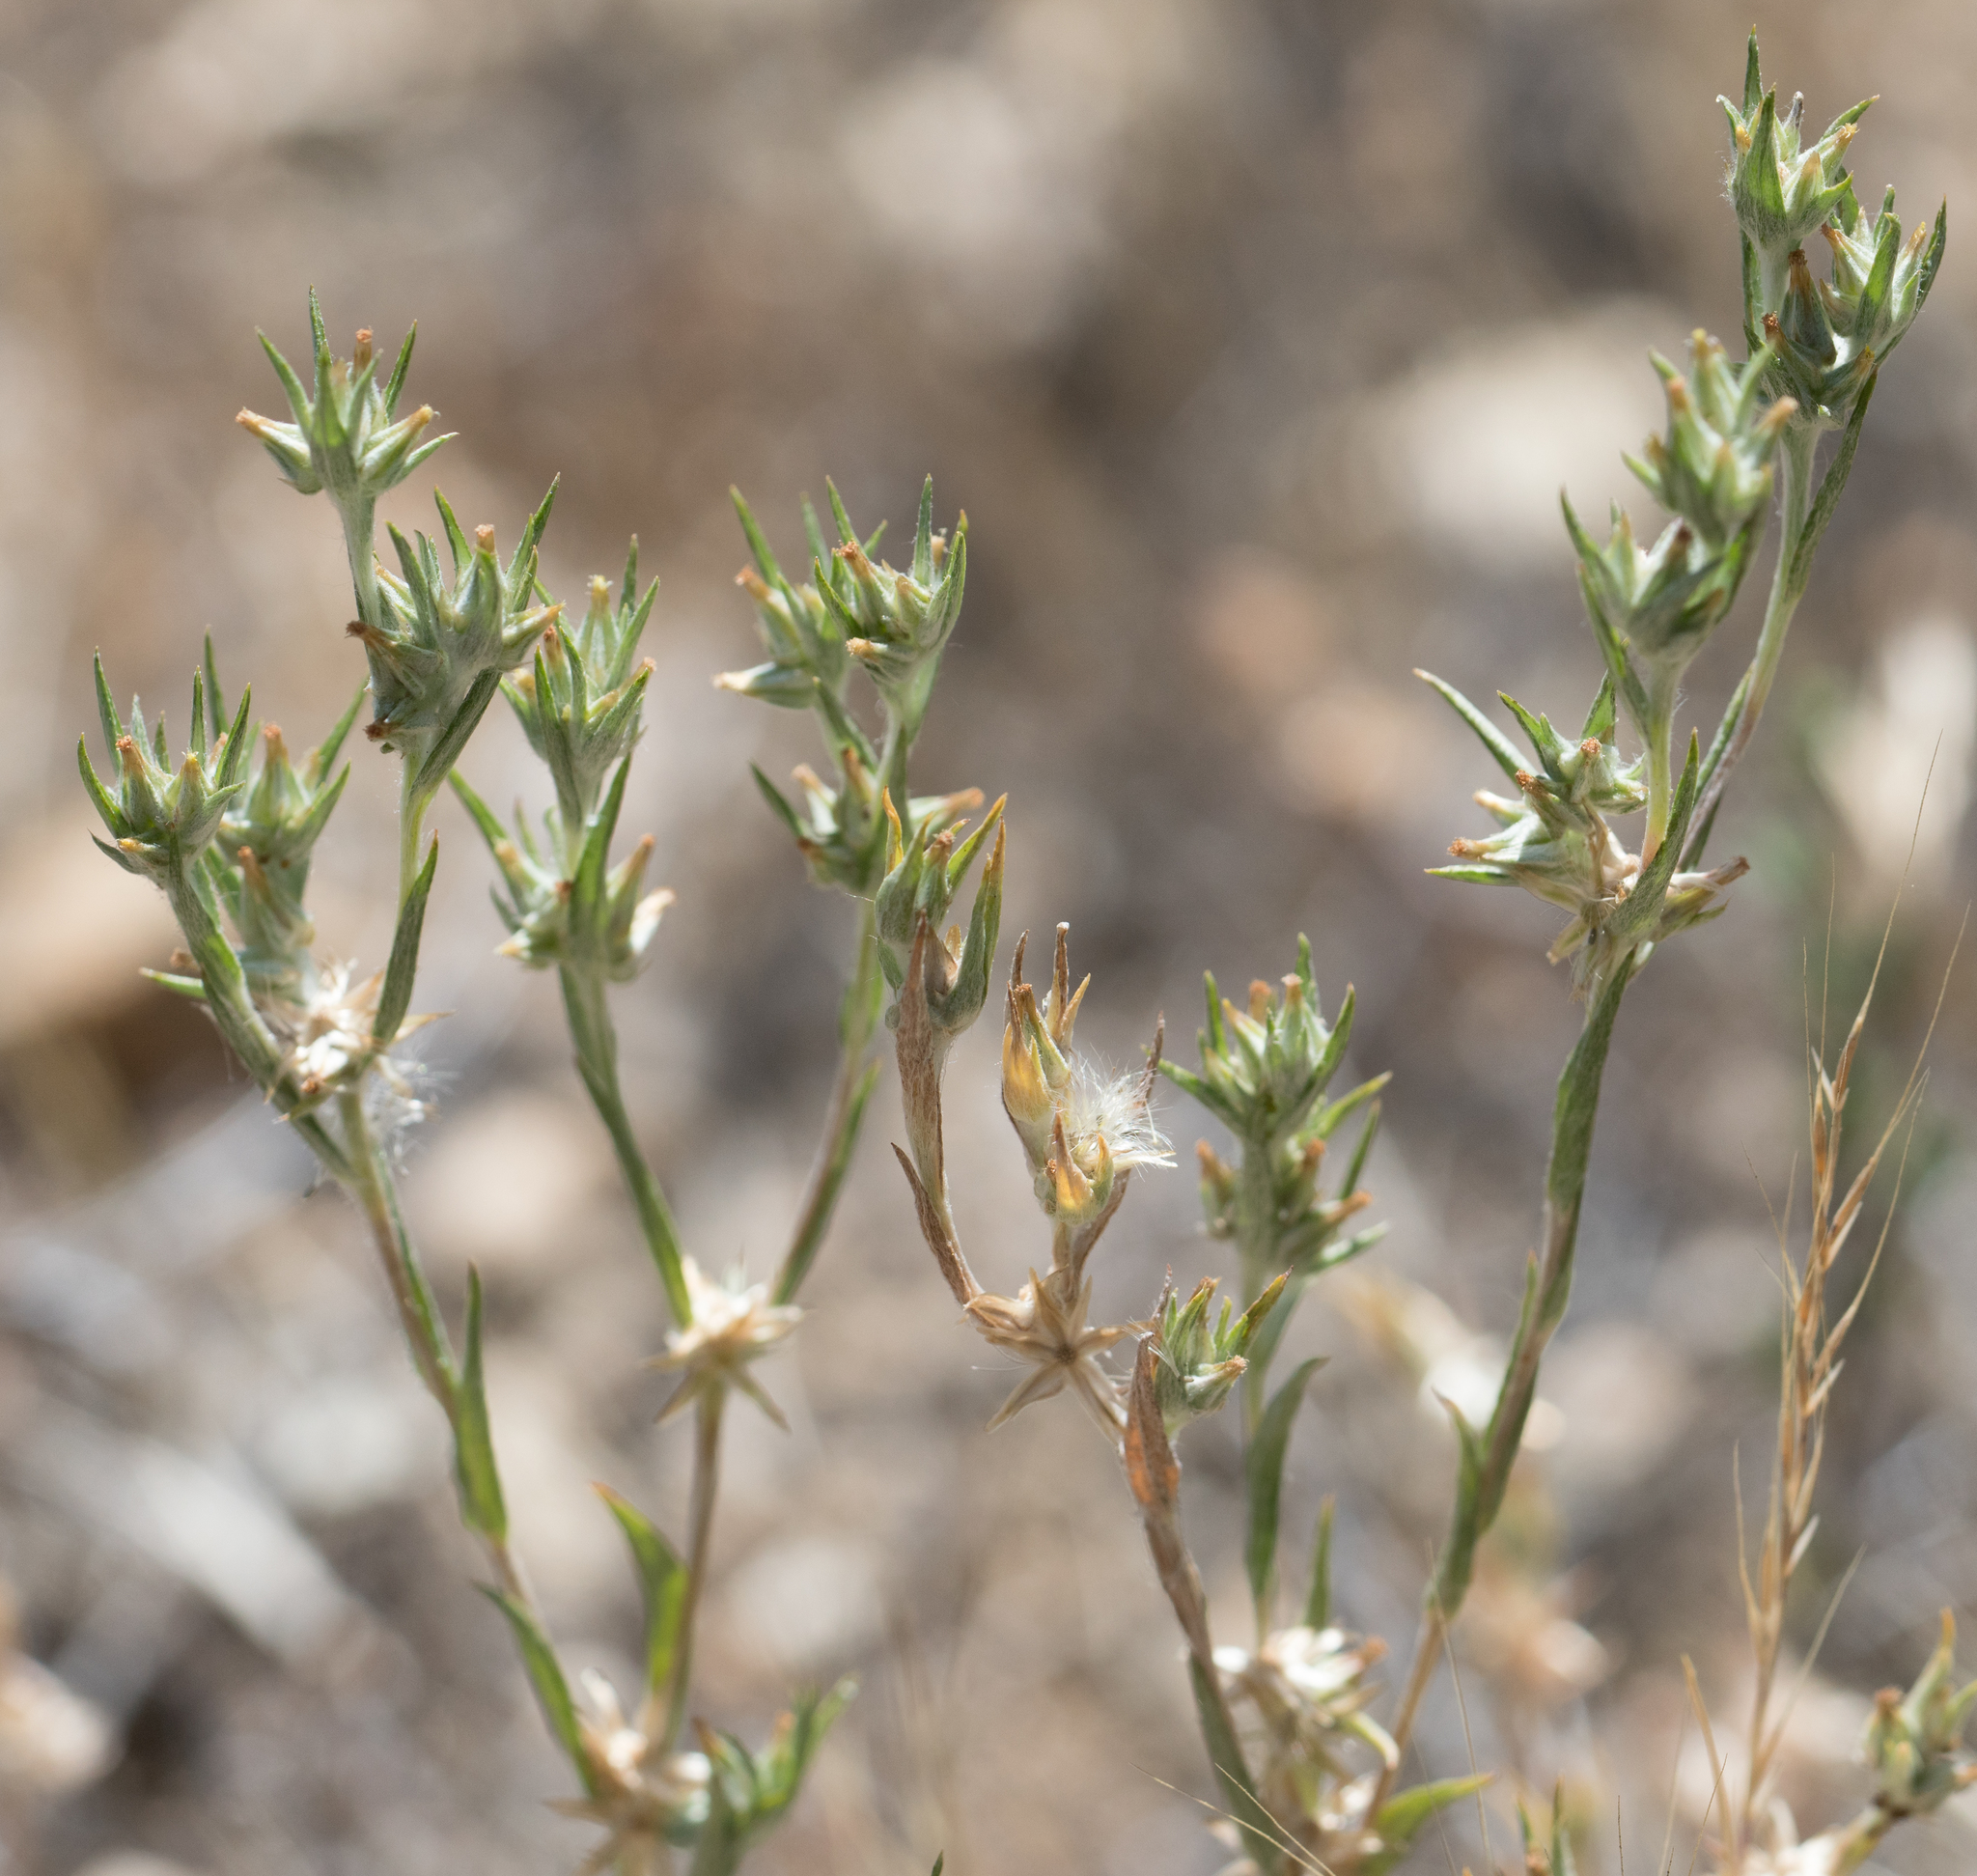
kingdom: Plantae
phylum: Tracheophyta
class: Magnoliopsida
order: Asterales
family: Asteraceae
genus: Logfia
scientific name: Logfia gallica
